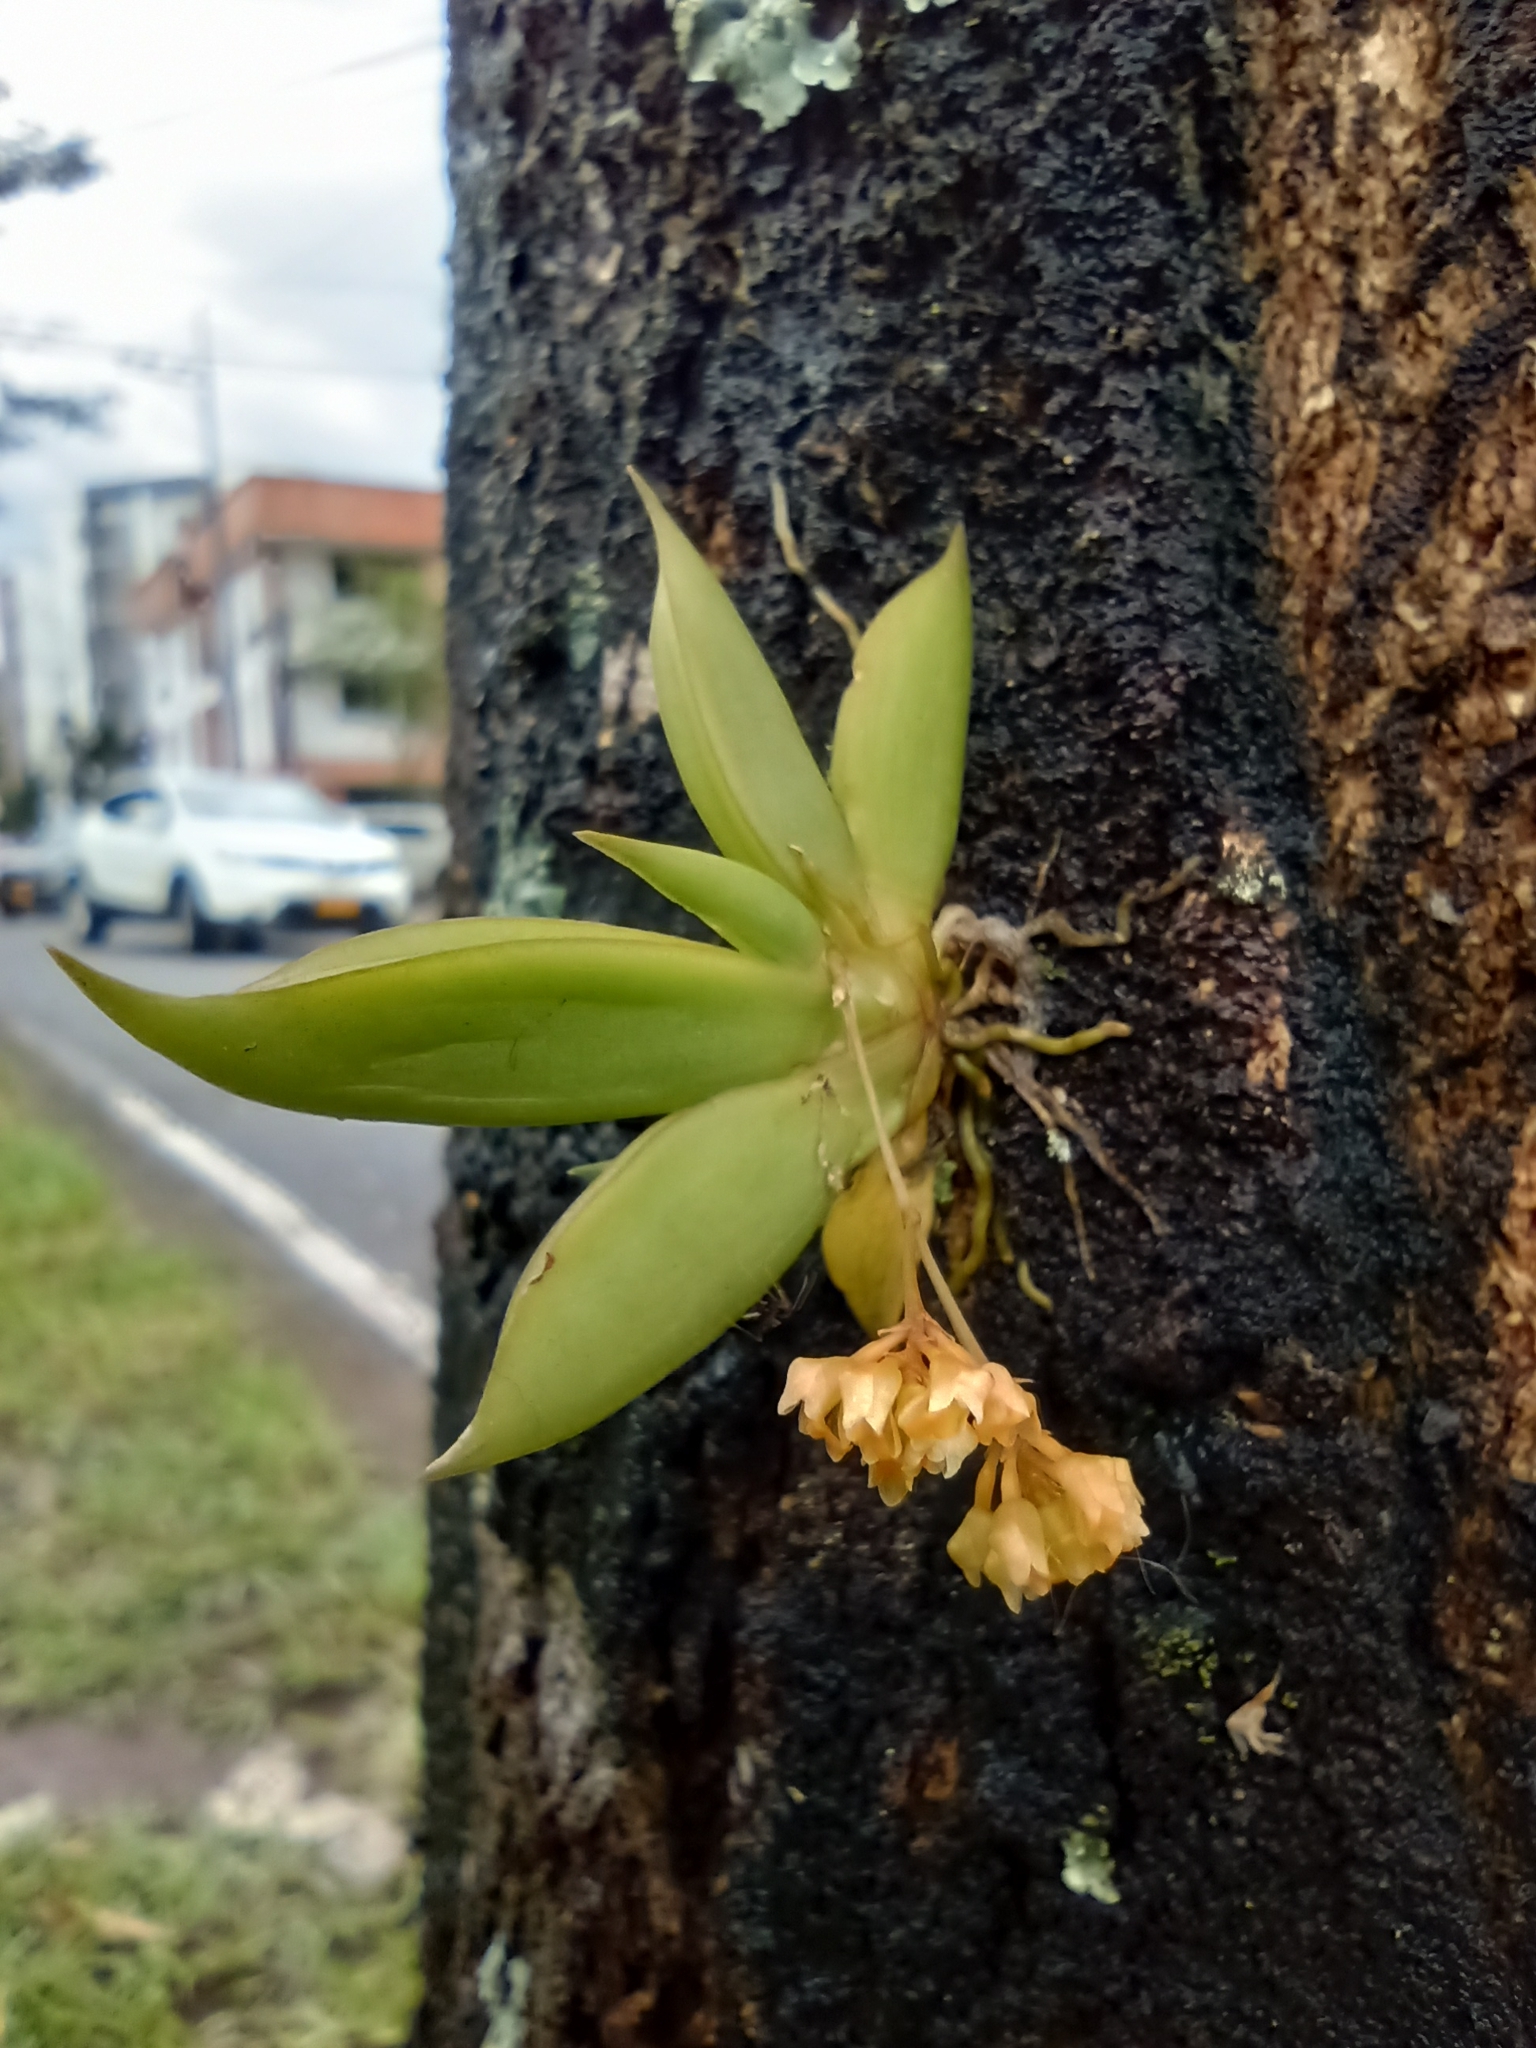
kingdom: Plantae
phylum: Tracheophyta
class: Liliopsida
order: Asparagales
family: Orchidaceae
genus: Trizeuxis
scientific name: Trizeuxis falcata
